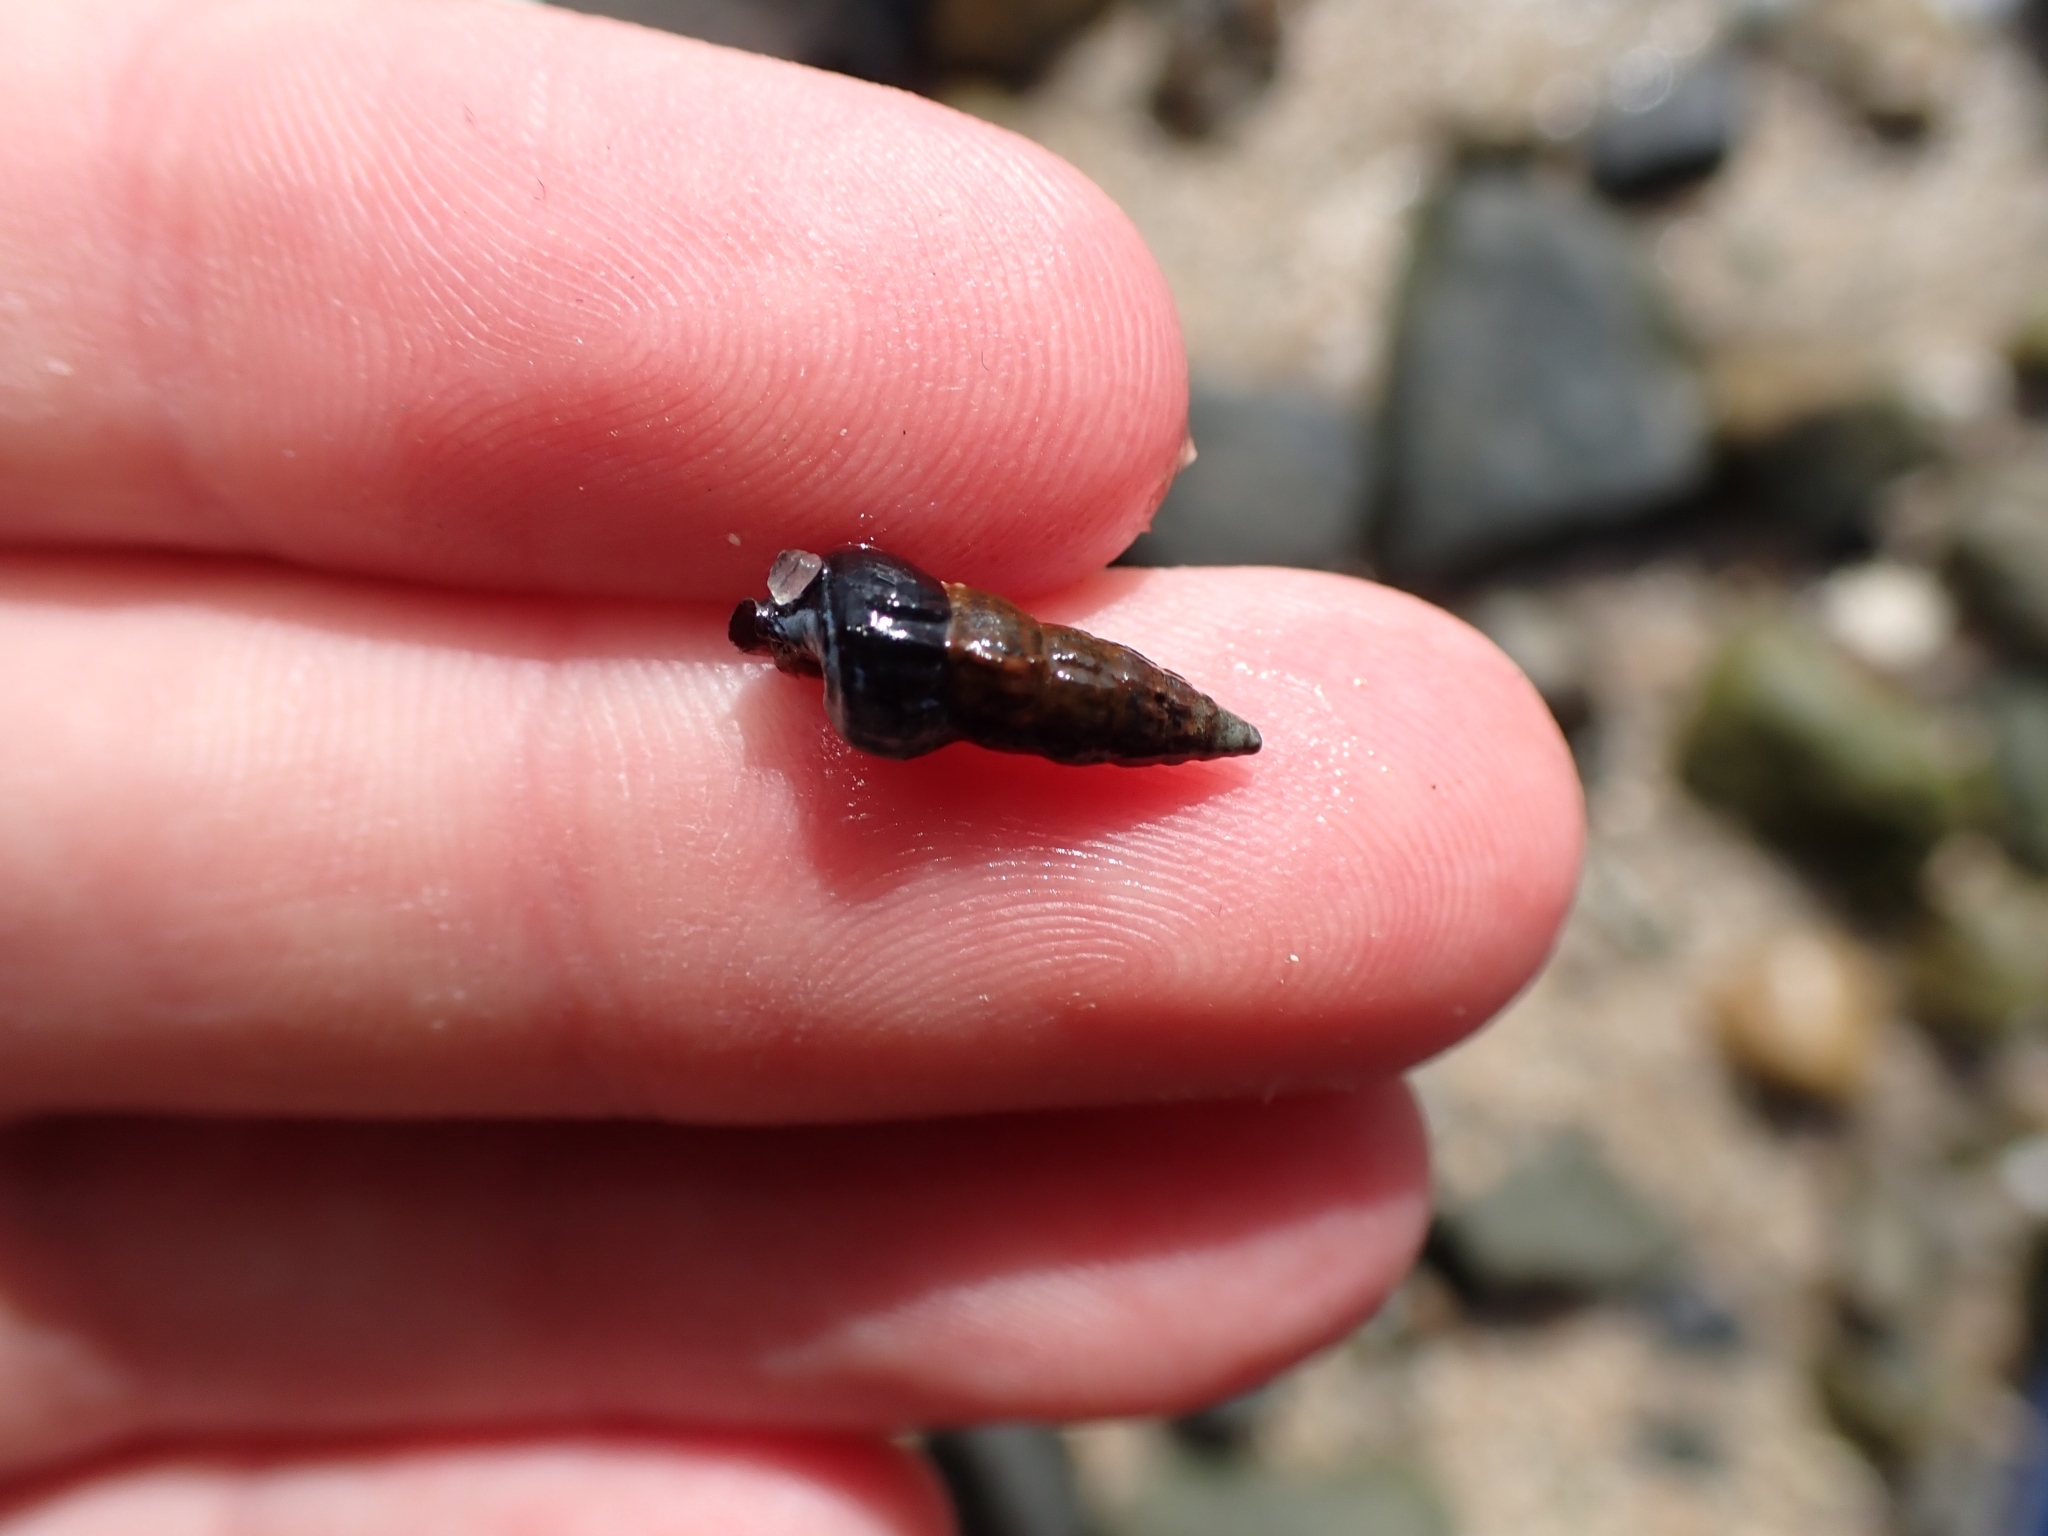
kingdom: Animalia
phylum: Mollusca
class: Gastropoda
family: Batillariidae
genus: Zeacumantus
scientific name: Zeacumantus lutulentus
